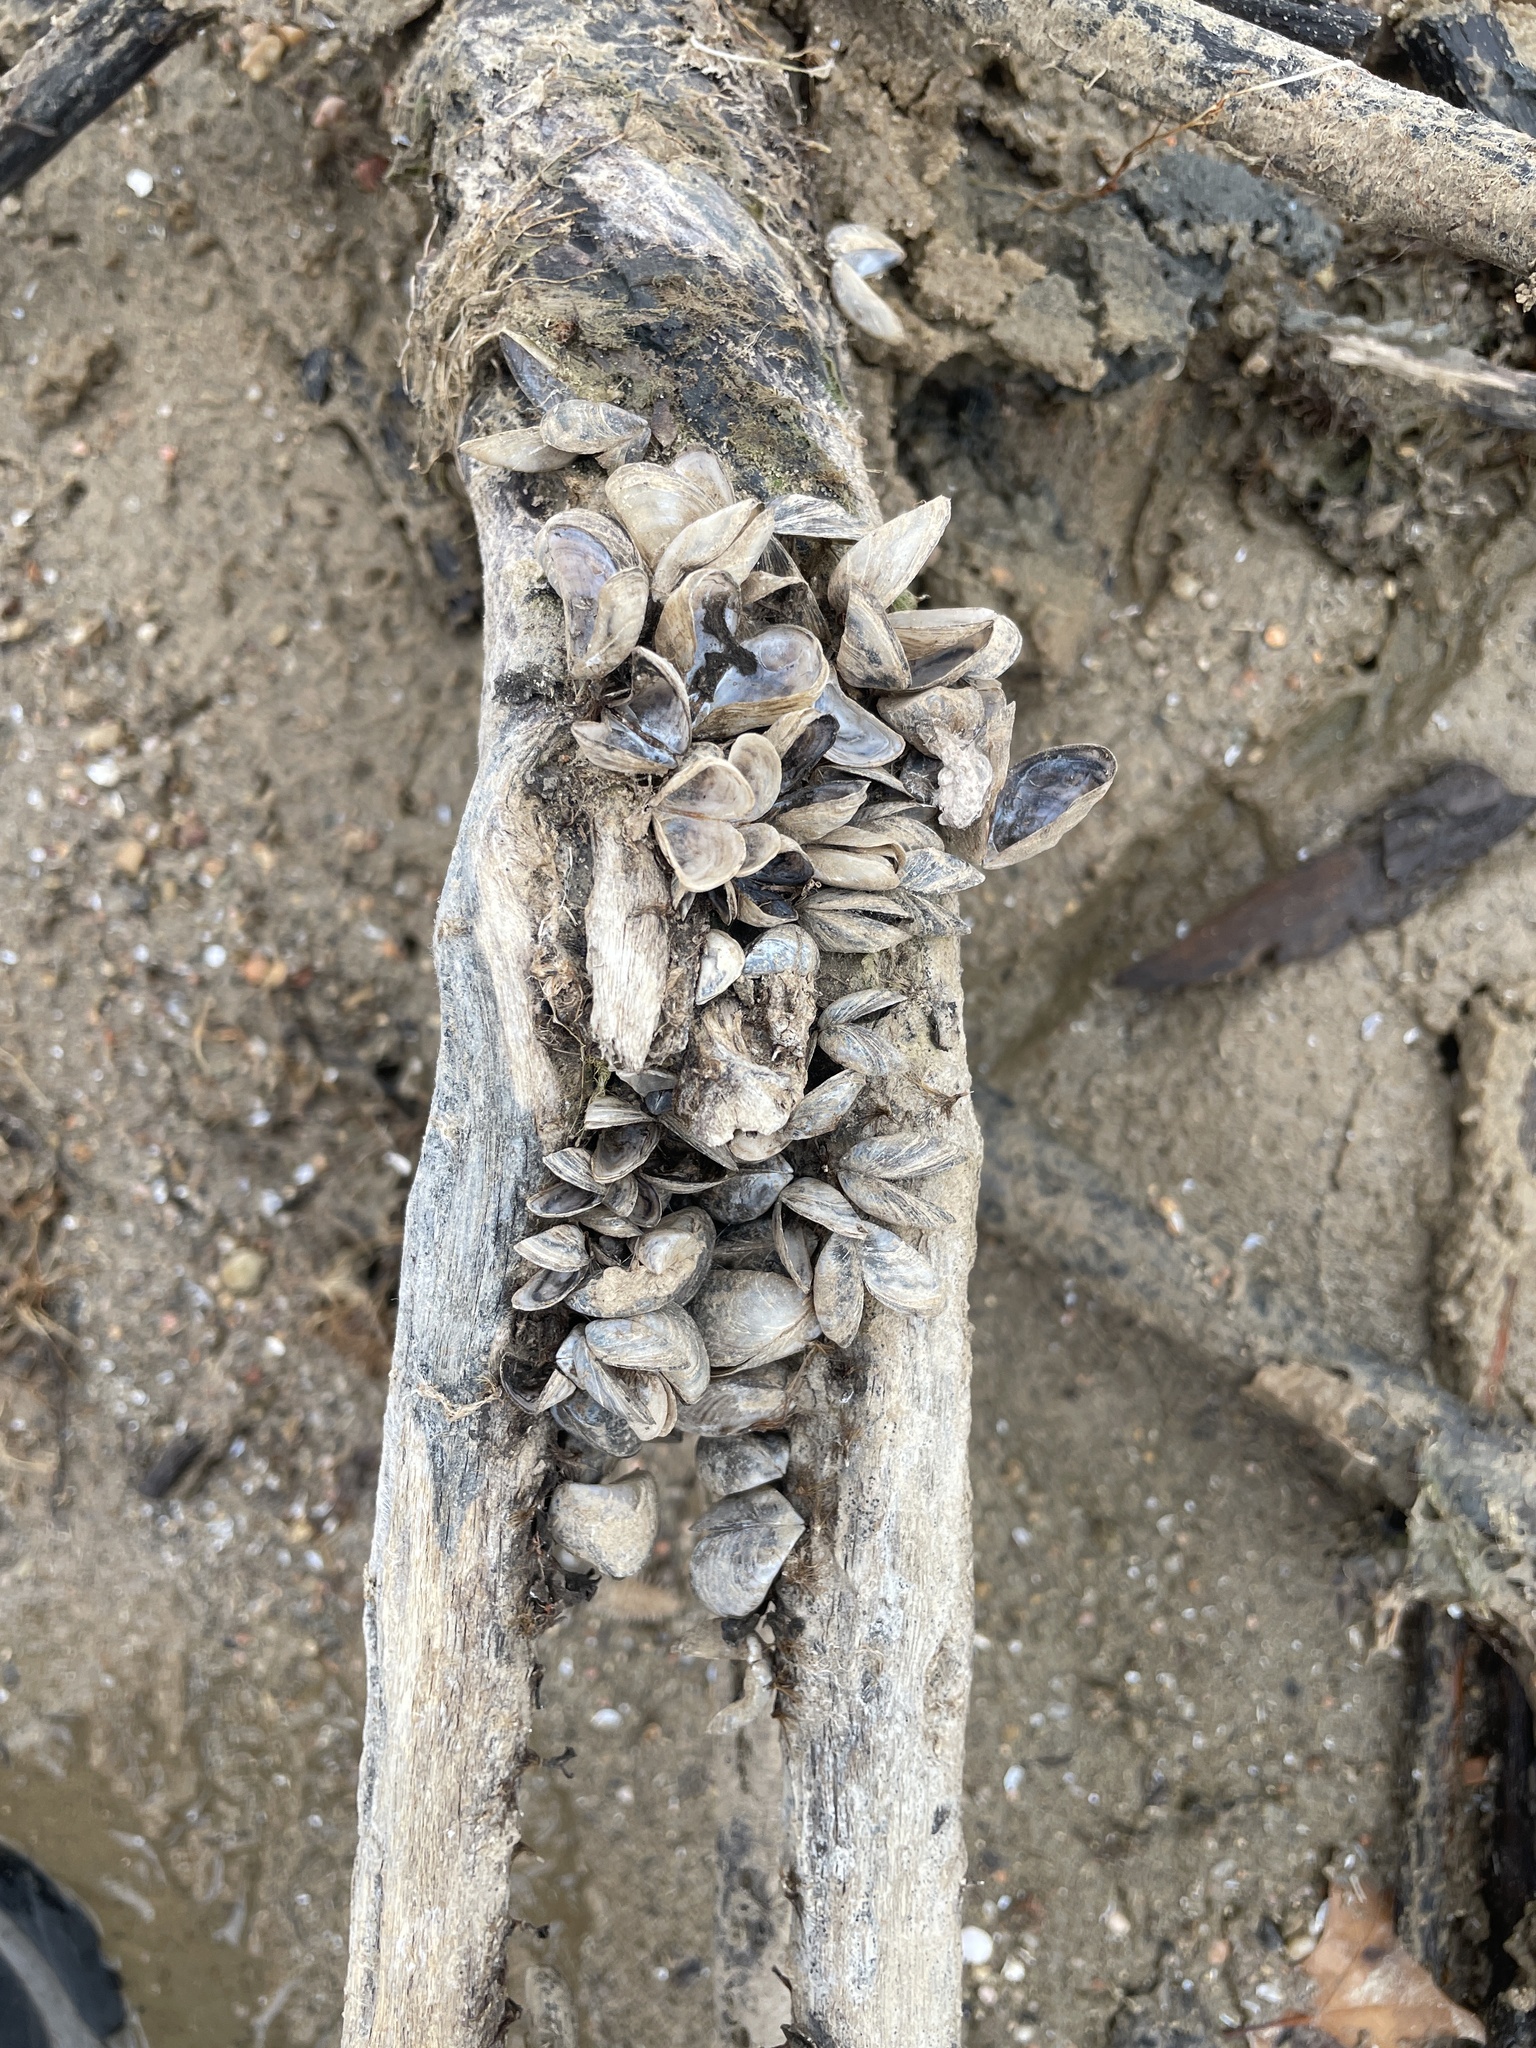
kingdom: Animalia
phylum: Mollusca
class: Bivalvia
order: Myida
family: Dreissenidae
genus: Dreissena
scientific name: Dreissena polymorpha
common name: Zebra mussel
